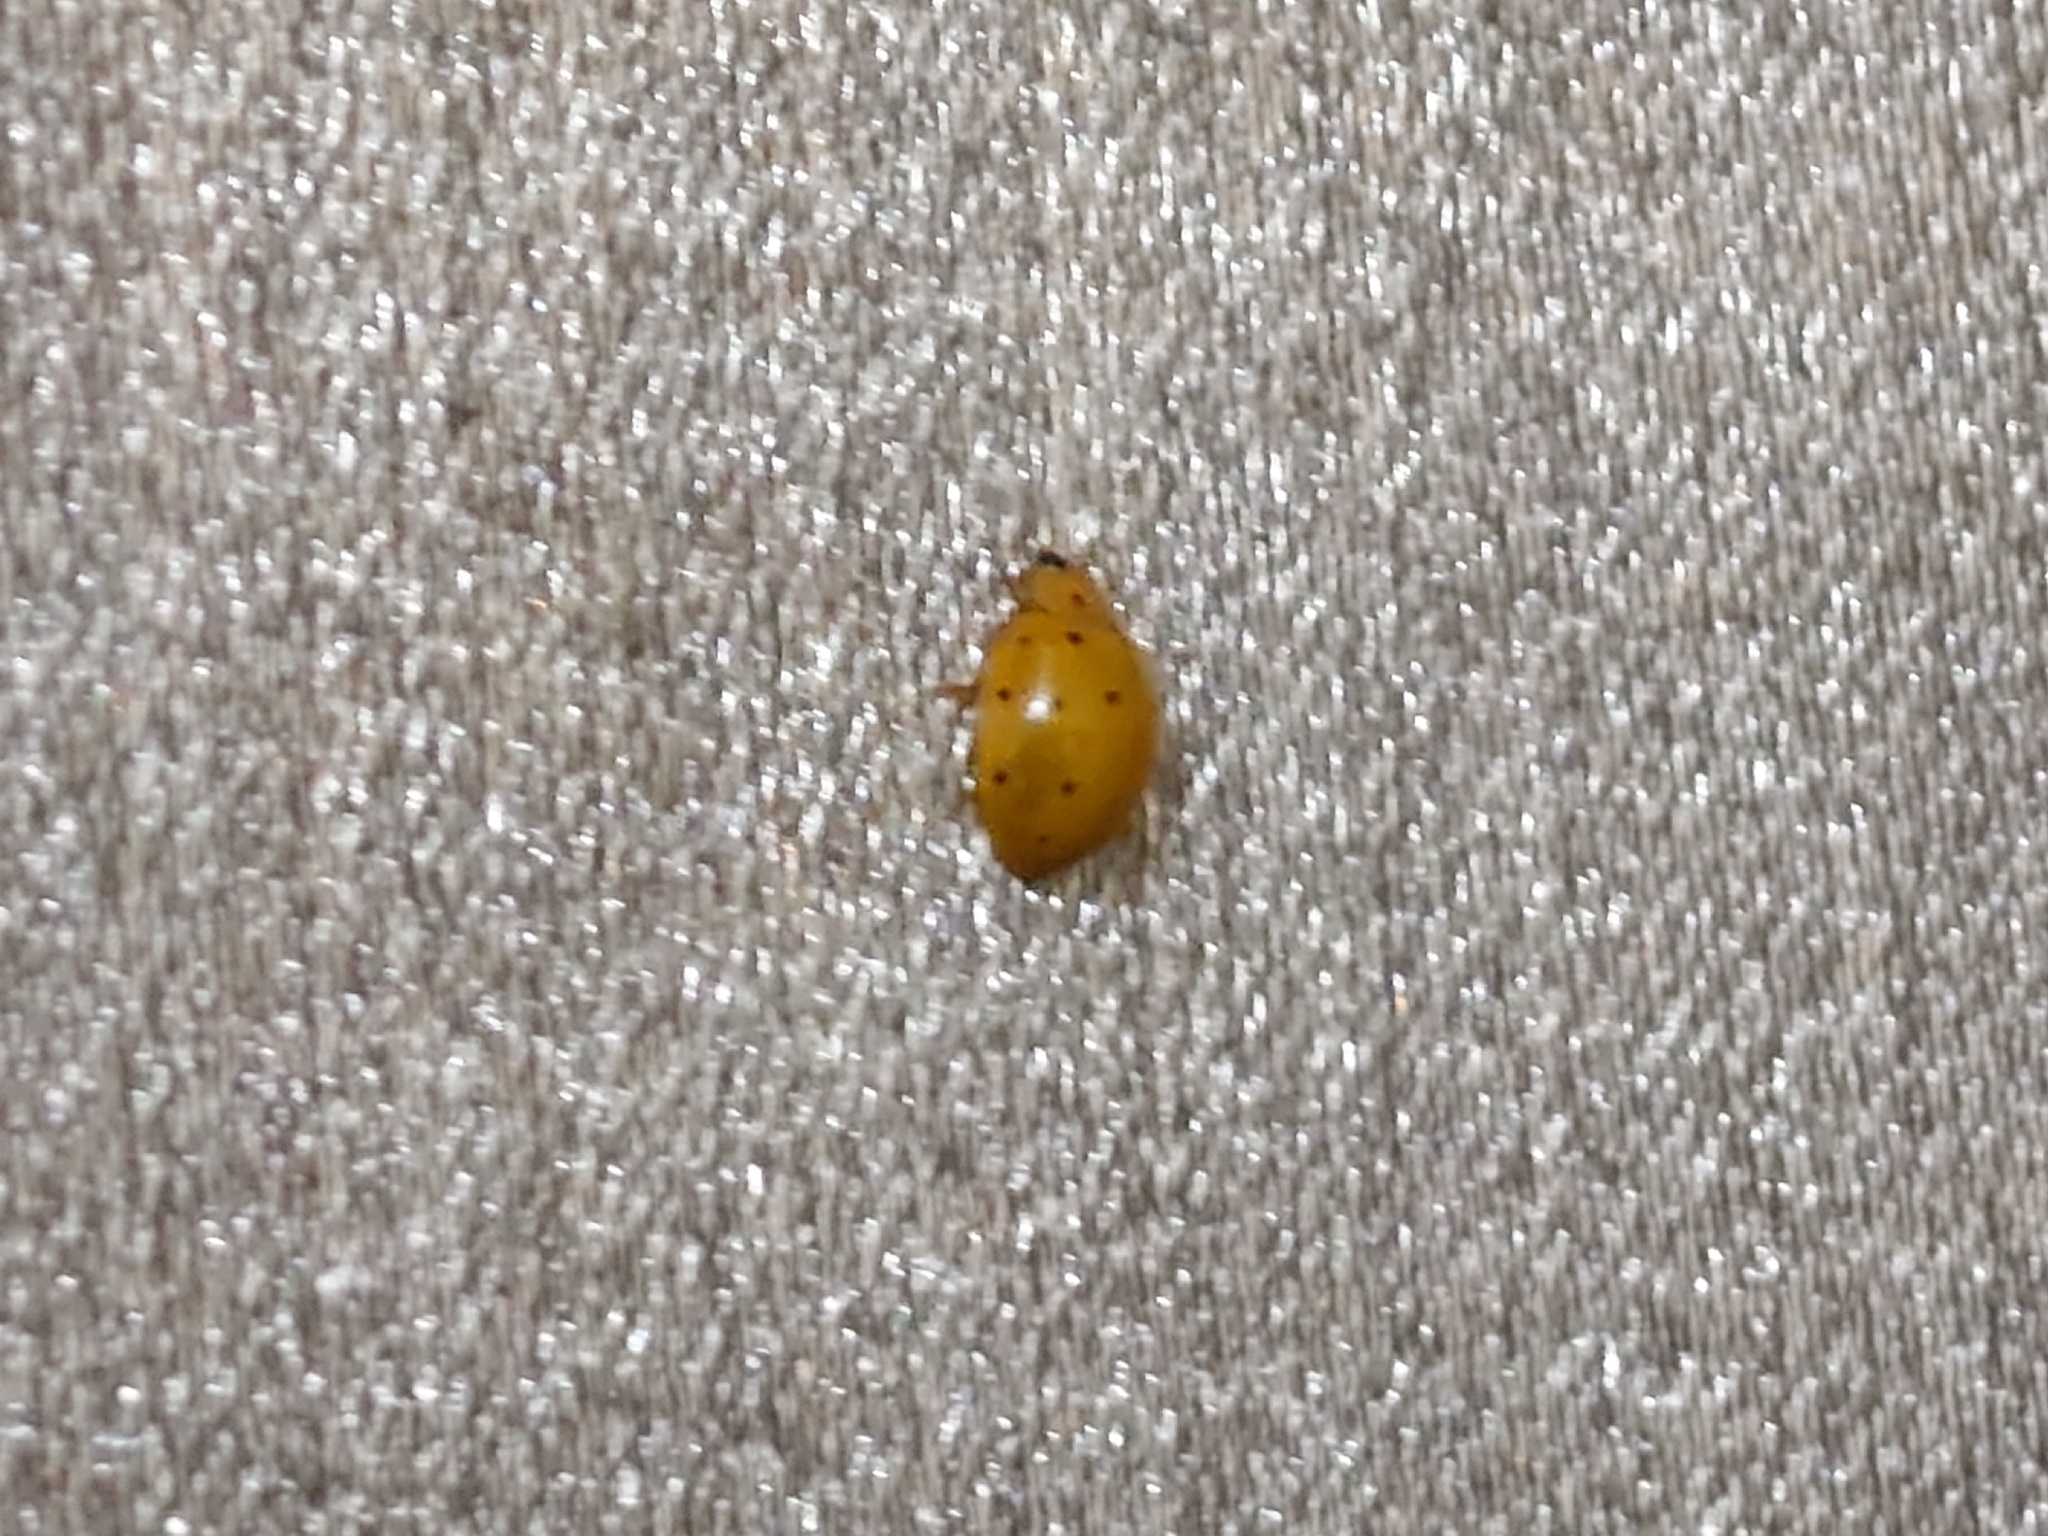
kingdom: Animalia
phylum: Arthropoda
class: Insecta
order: Coleoptera
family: Coccinellidae
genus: Harmonia
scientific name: Harmonia sedecimnotata
